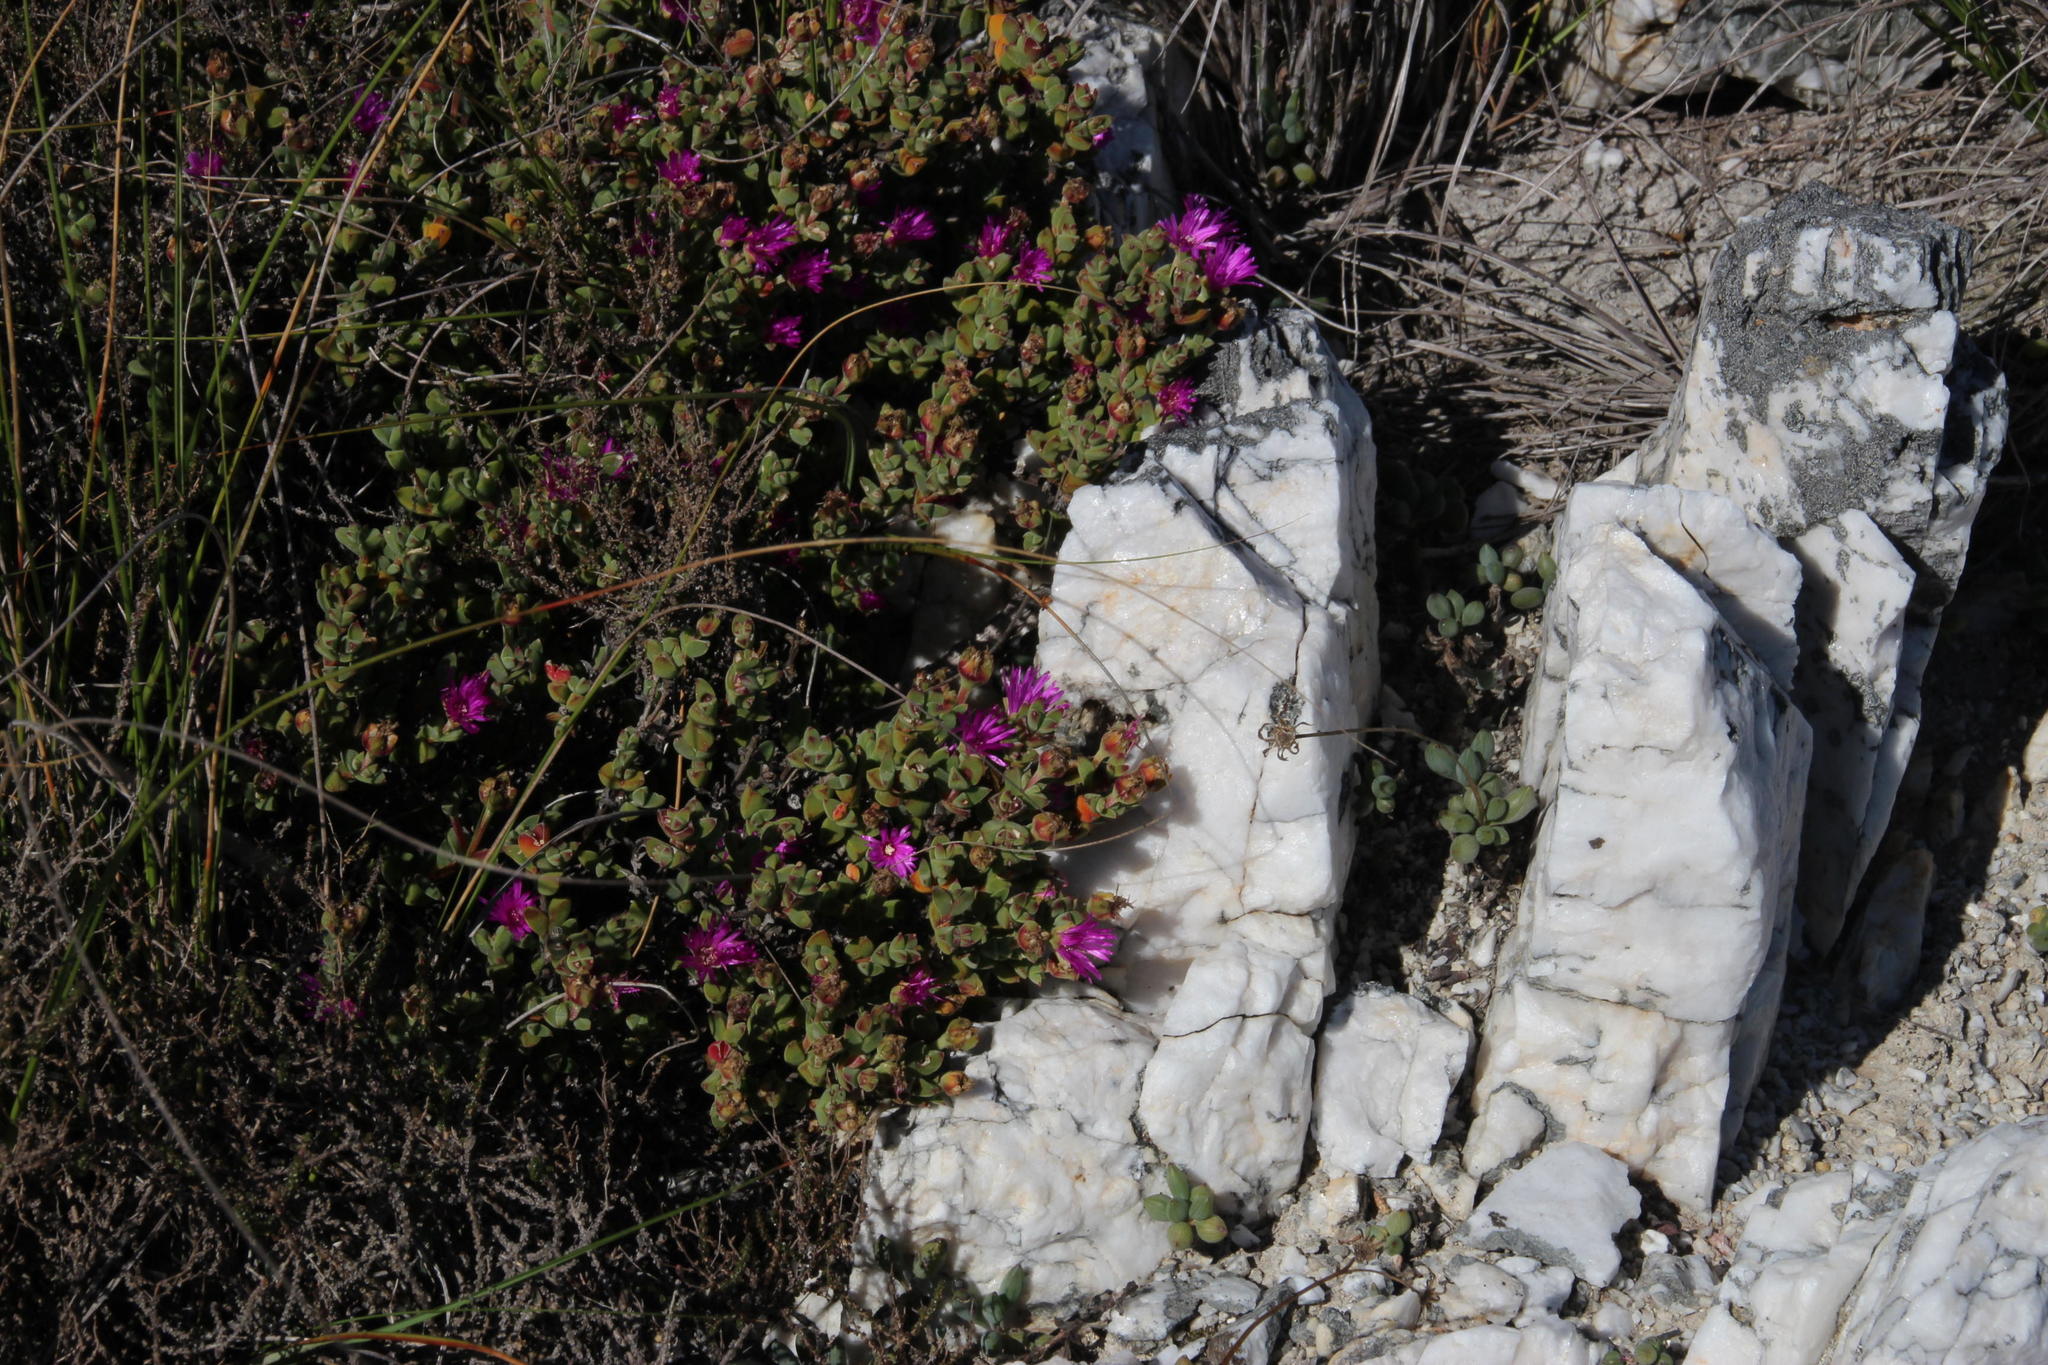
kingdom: Plantae
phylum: Tracheophyta
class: Magnoliopsida
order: Caryophyllales
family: Aizoaceae
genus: Drosanthemum
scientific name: Drosanthemum quadratum
